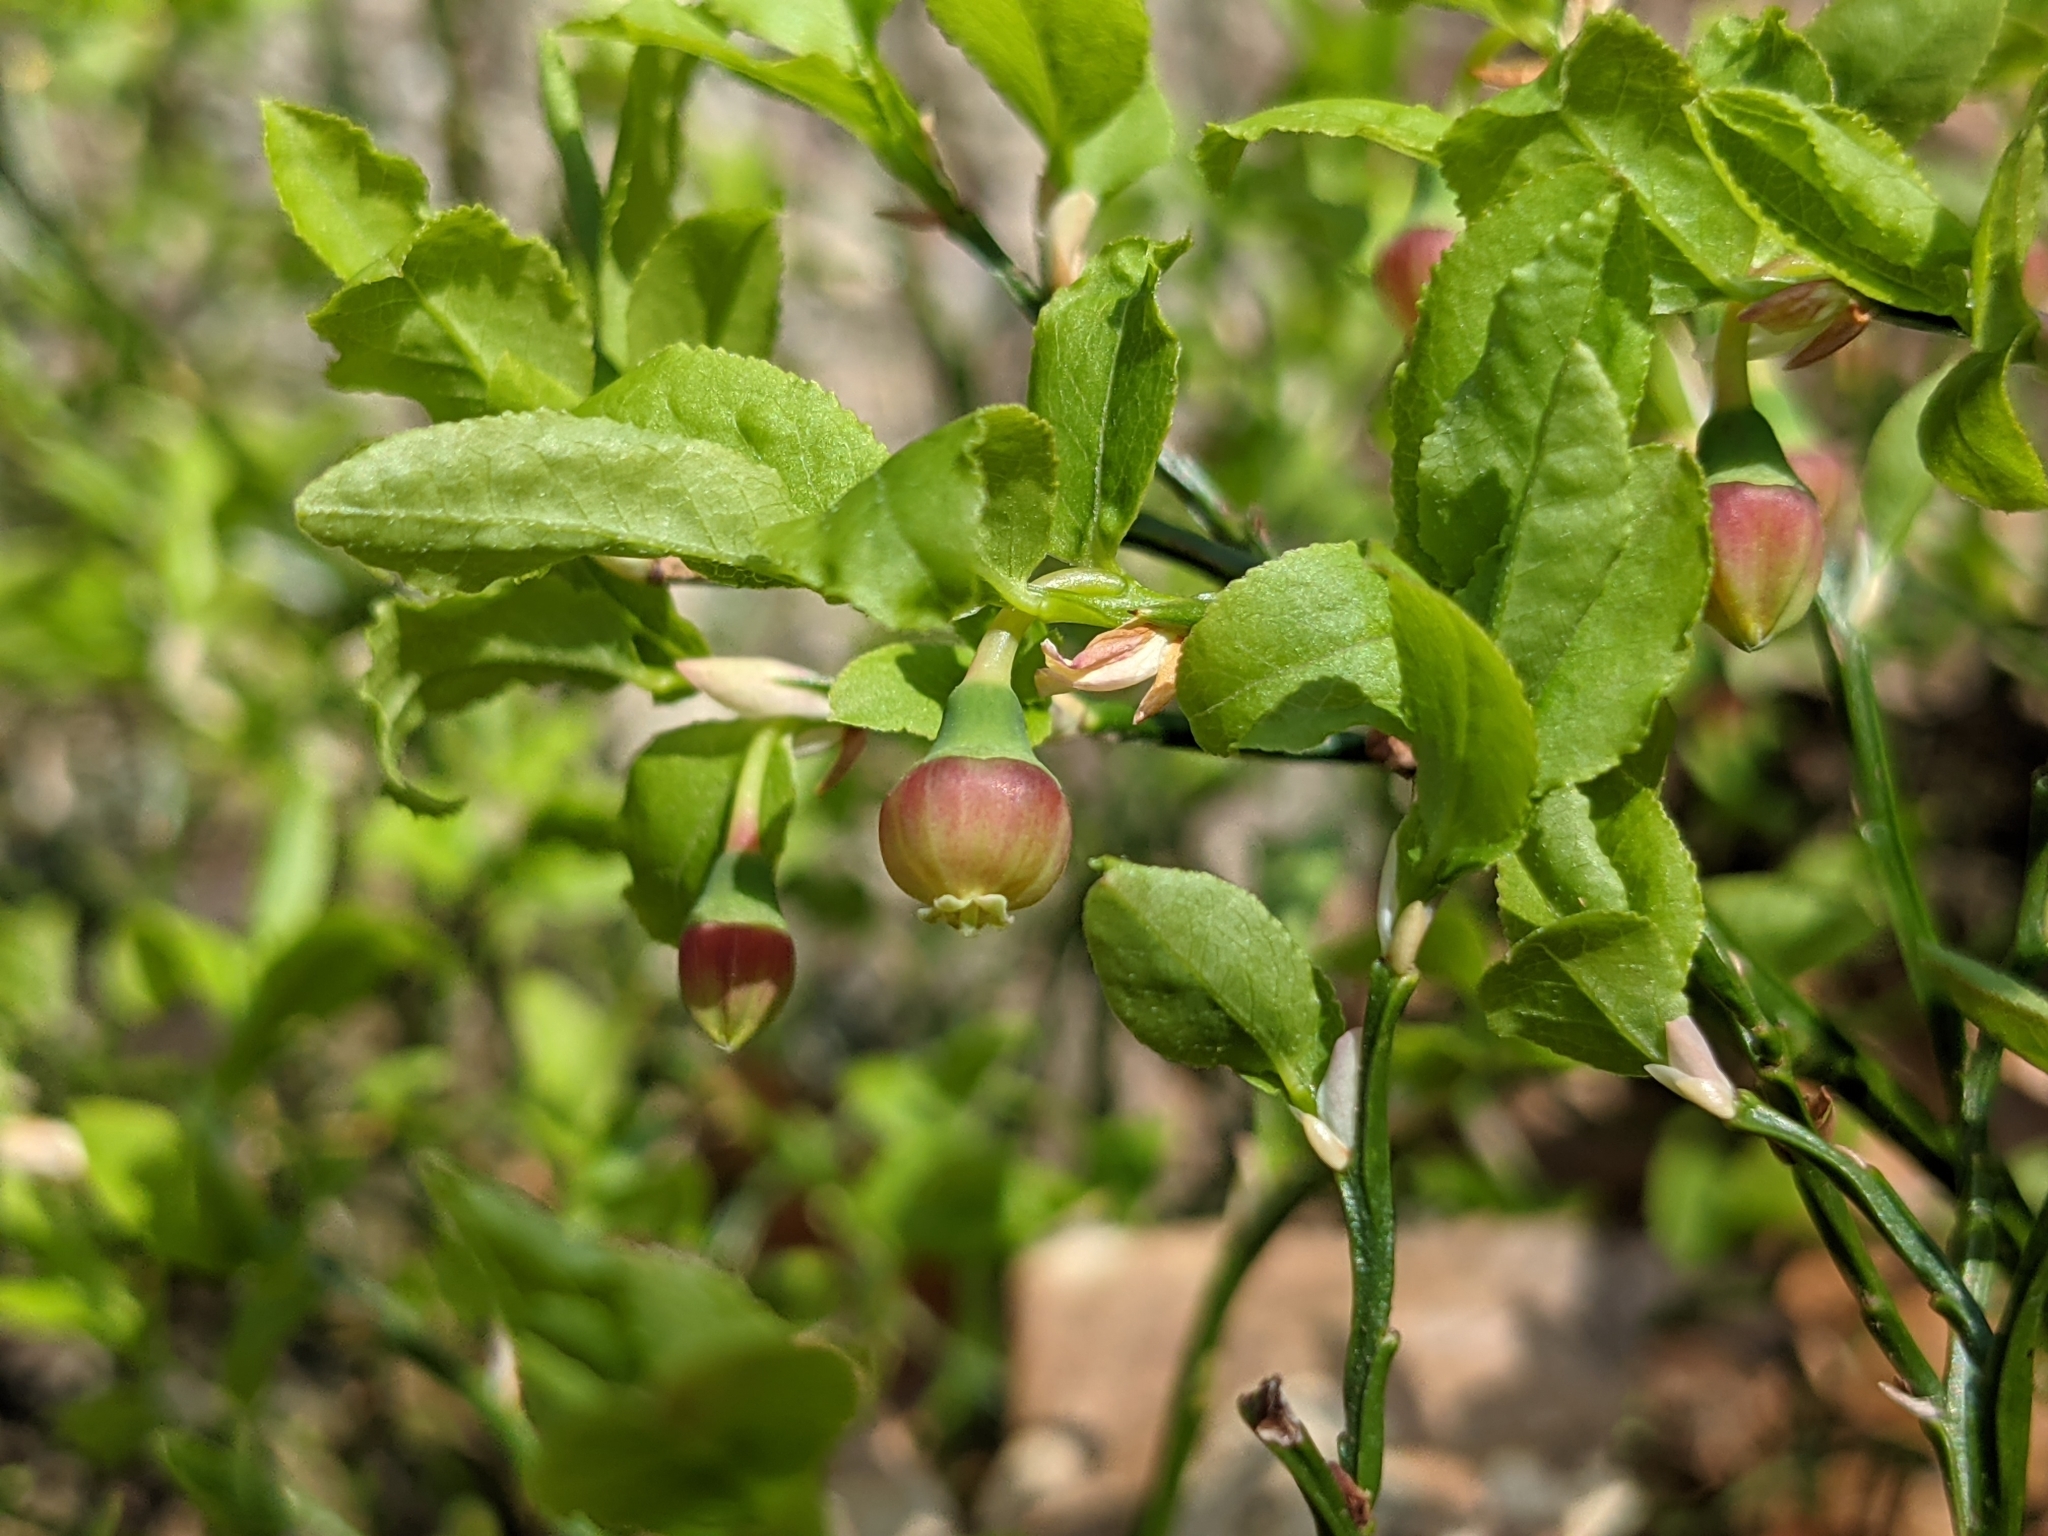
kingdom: Plantae
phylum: Tracheophyta
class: Magnoliopsida
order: Ericales
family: Ericaceae
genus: Vaccinium
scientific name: Vaccinium myrtillus
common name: Bilberry
